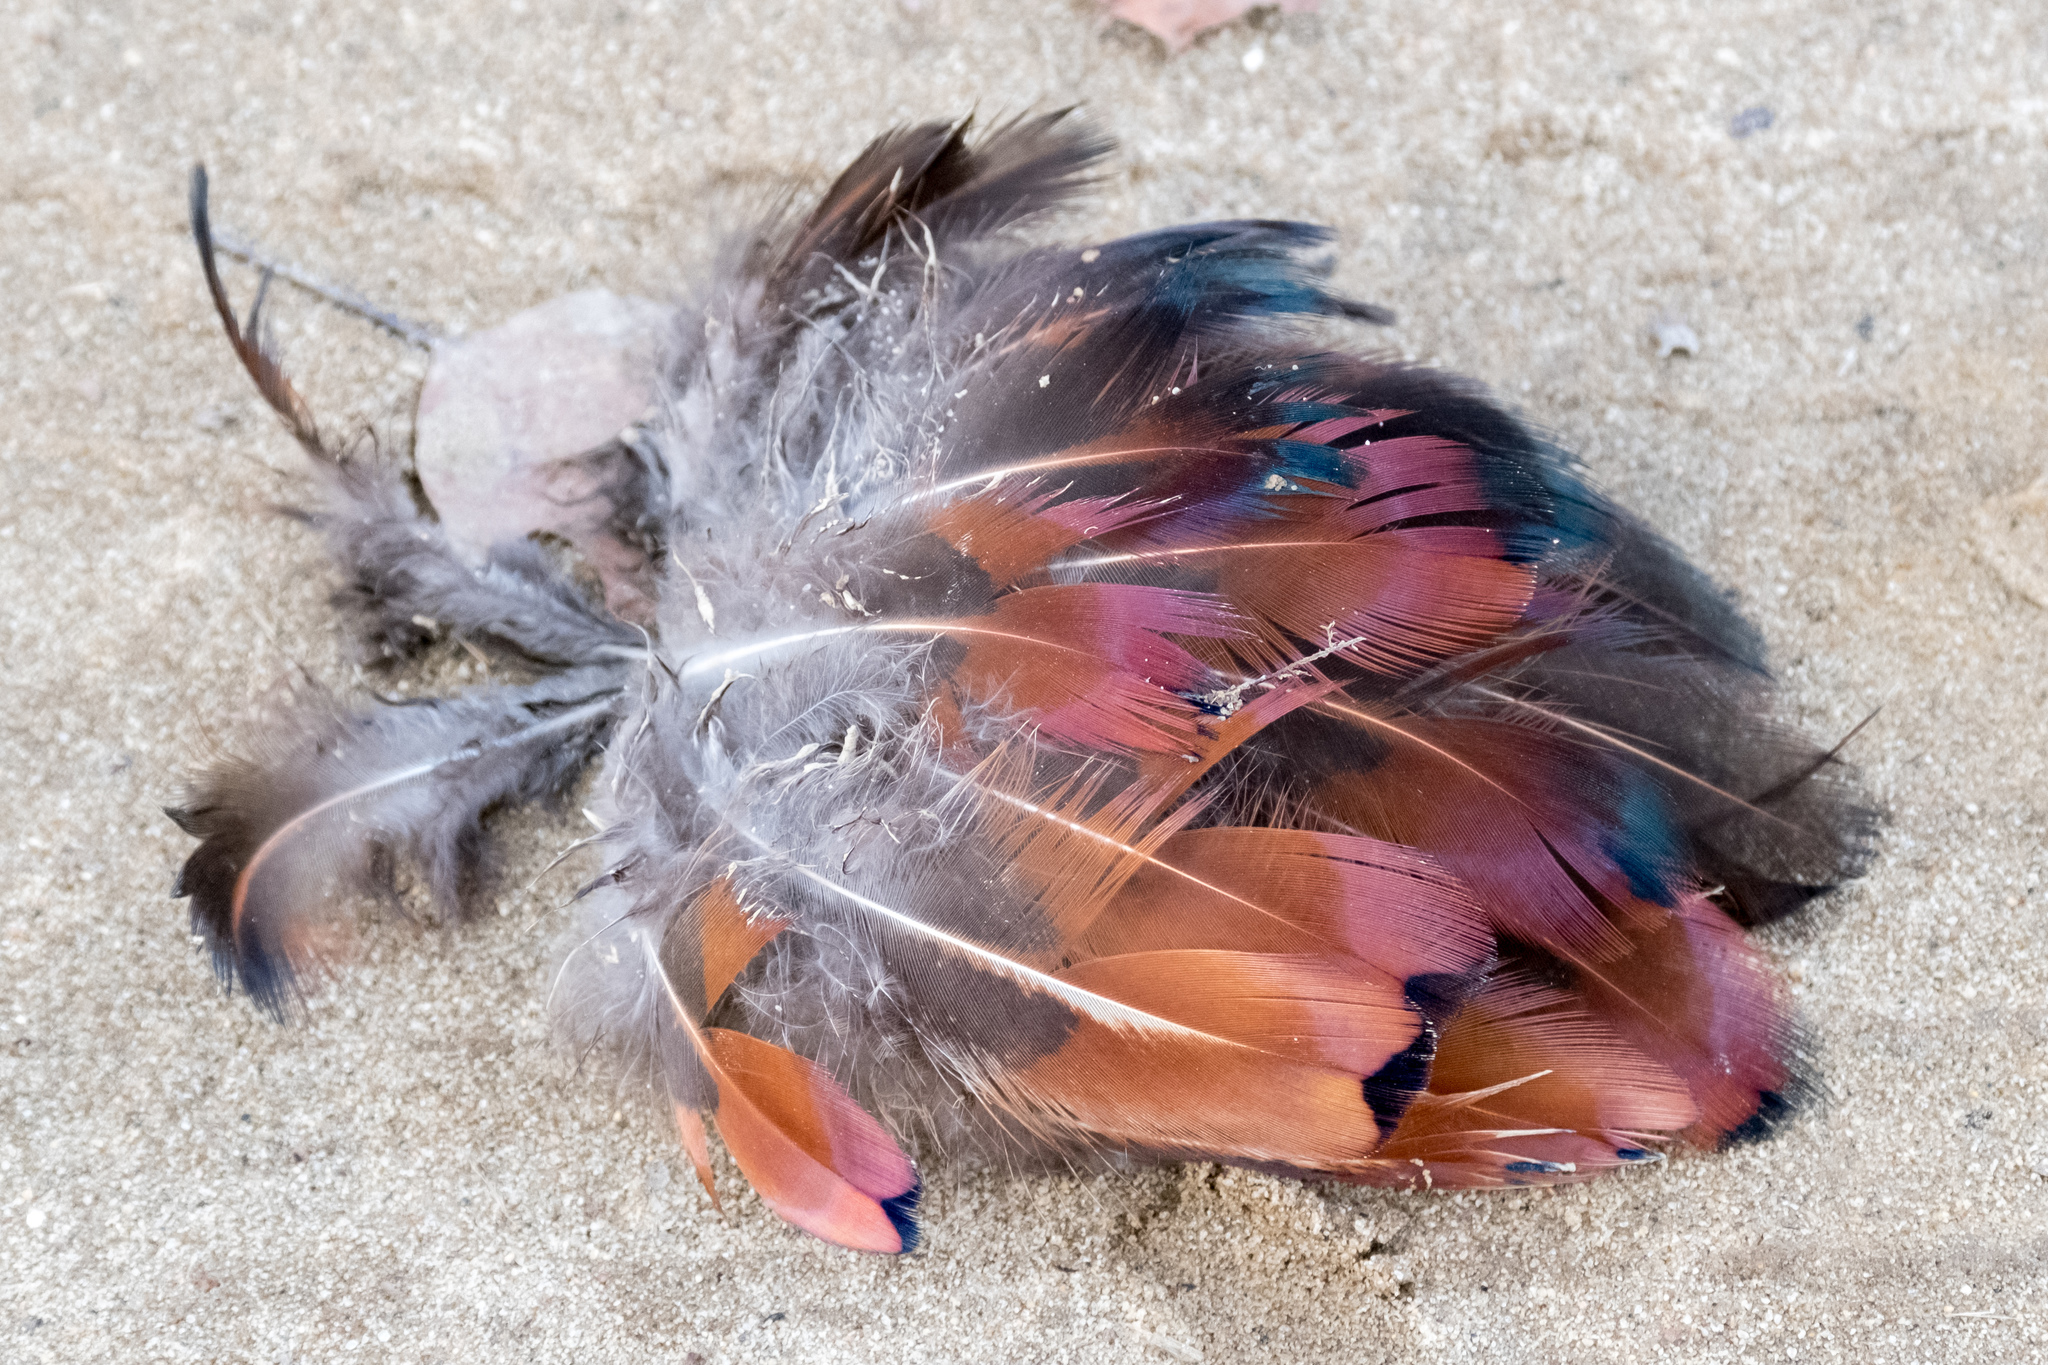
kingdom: Animalia
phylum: Chordata
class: Aves
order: Galliformes
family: Phasianidae
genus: Phasianus
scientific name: Phasianus colchicus
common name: Common pheasant
